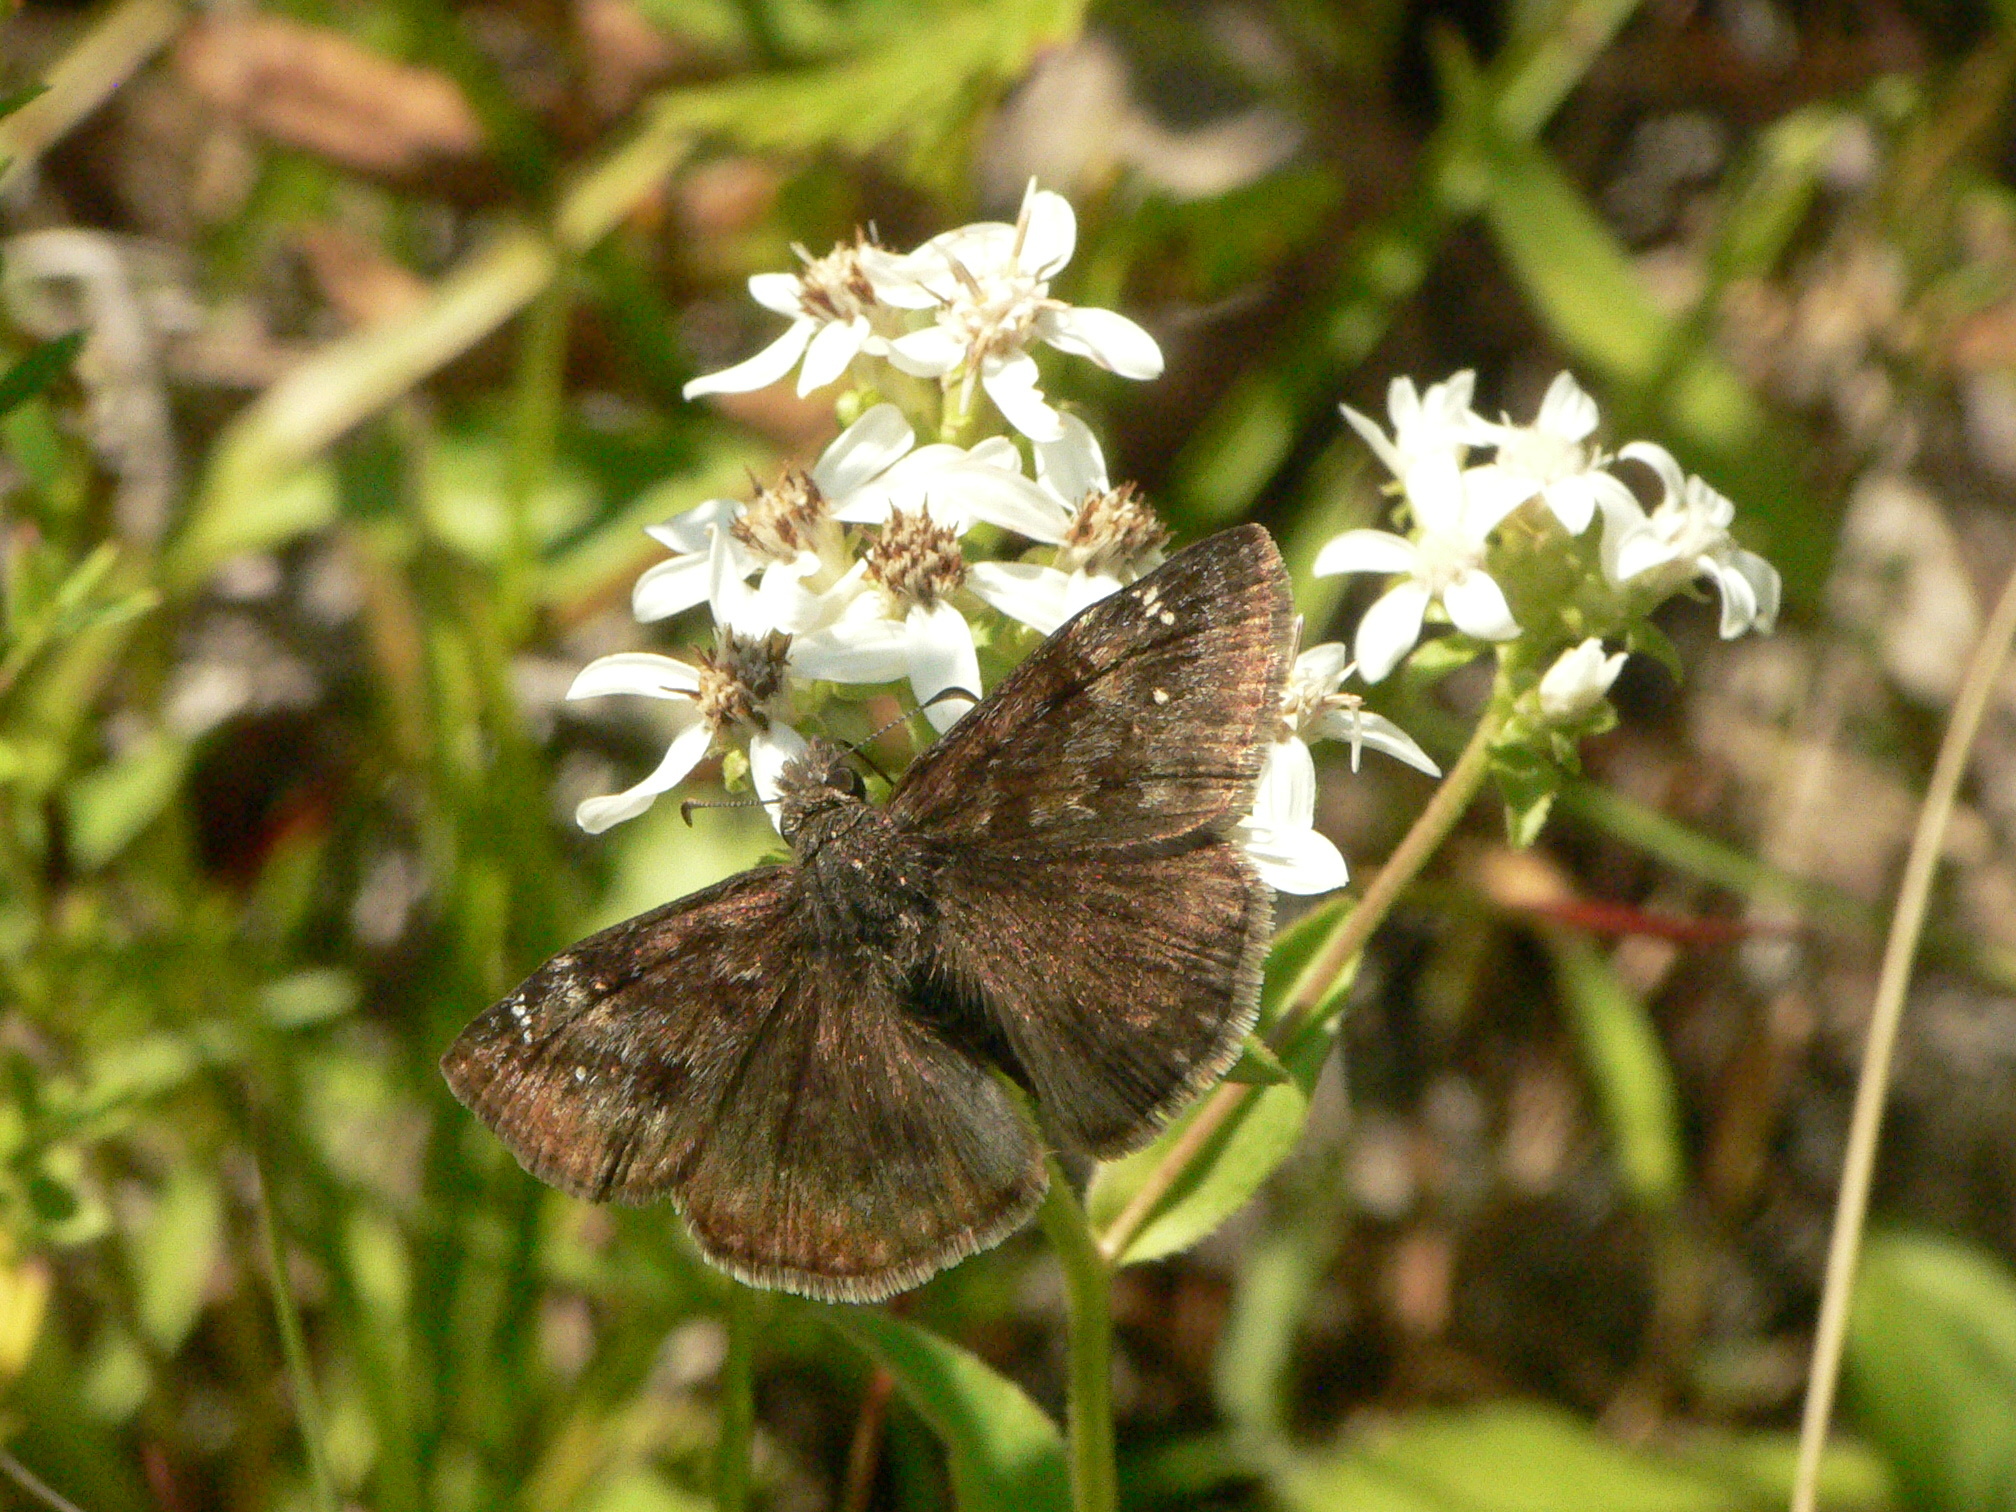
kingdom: Animalia
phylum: Arthropoda
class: Insecta
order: Lepidoptera
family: Hesperiidae
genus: Erynnis
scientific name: Erynnis baptisiae
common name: Wild indigo duskywing
